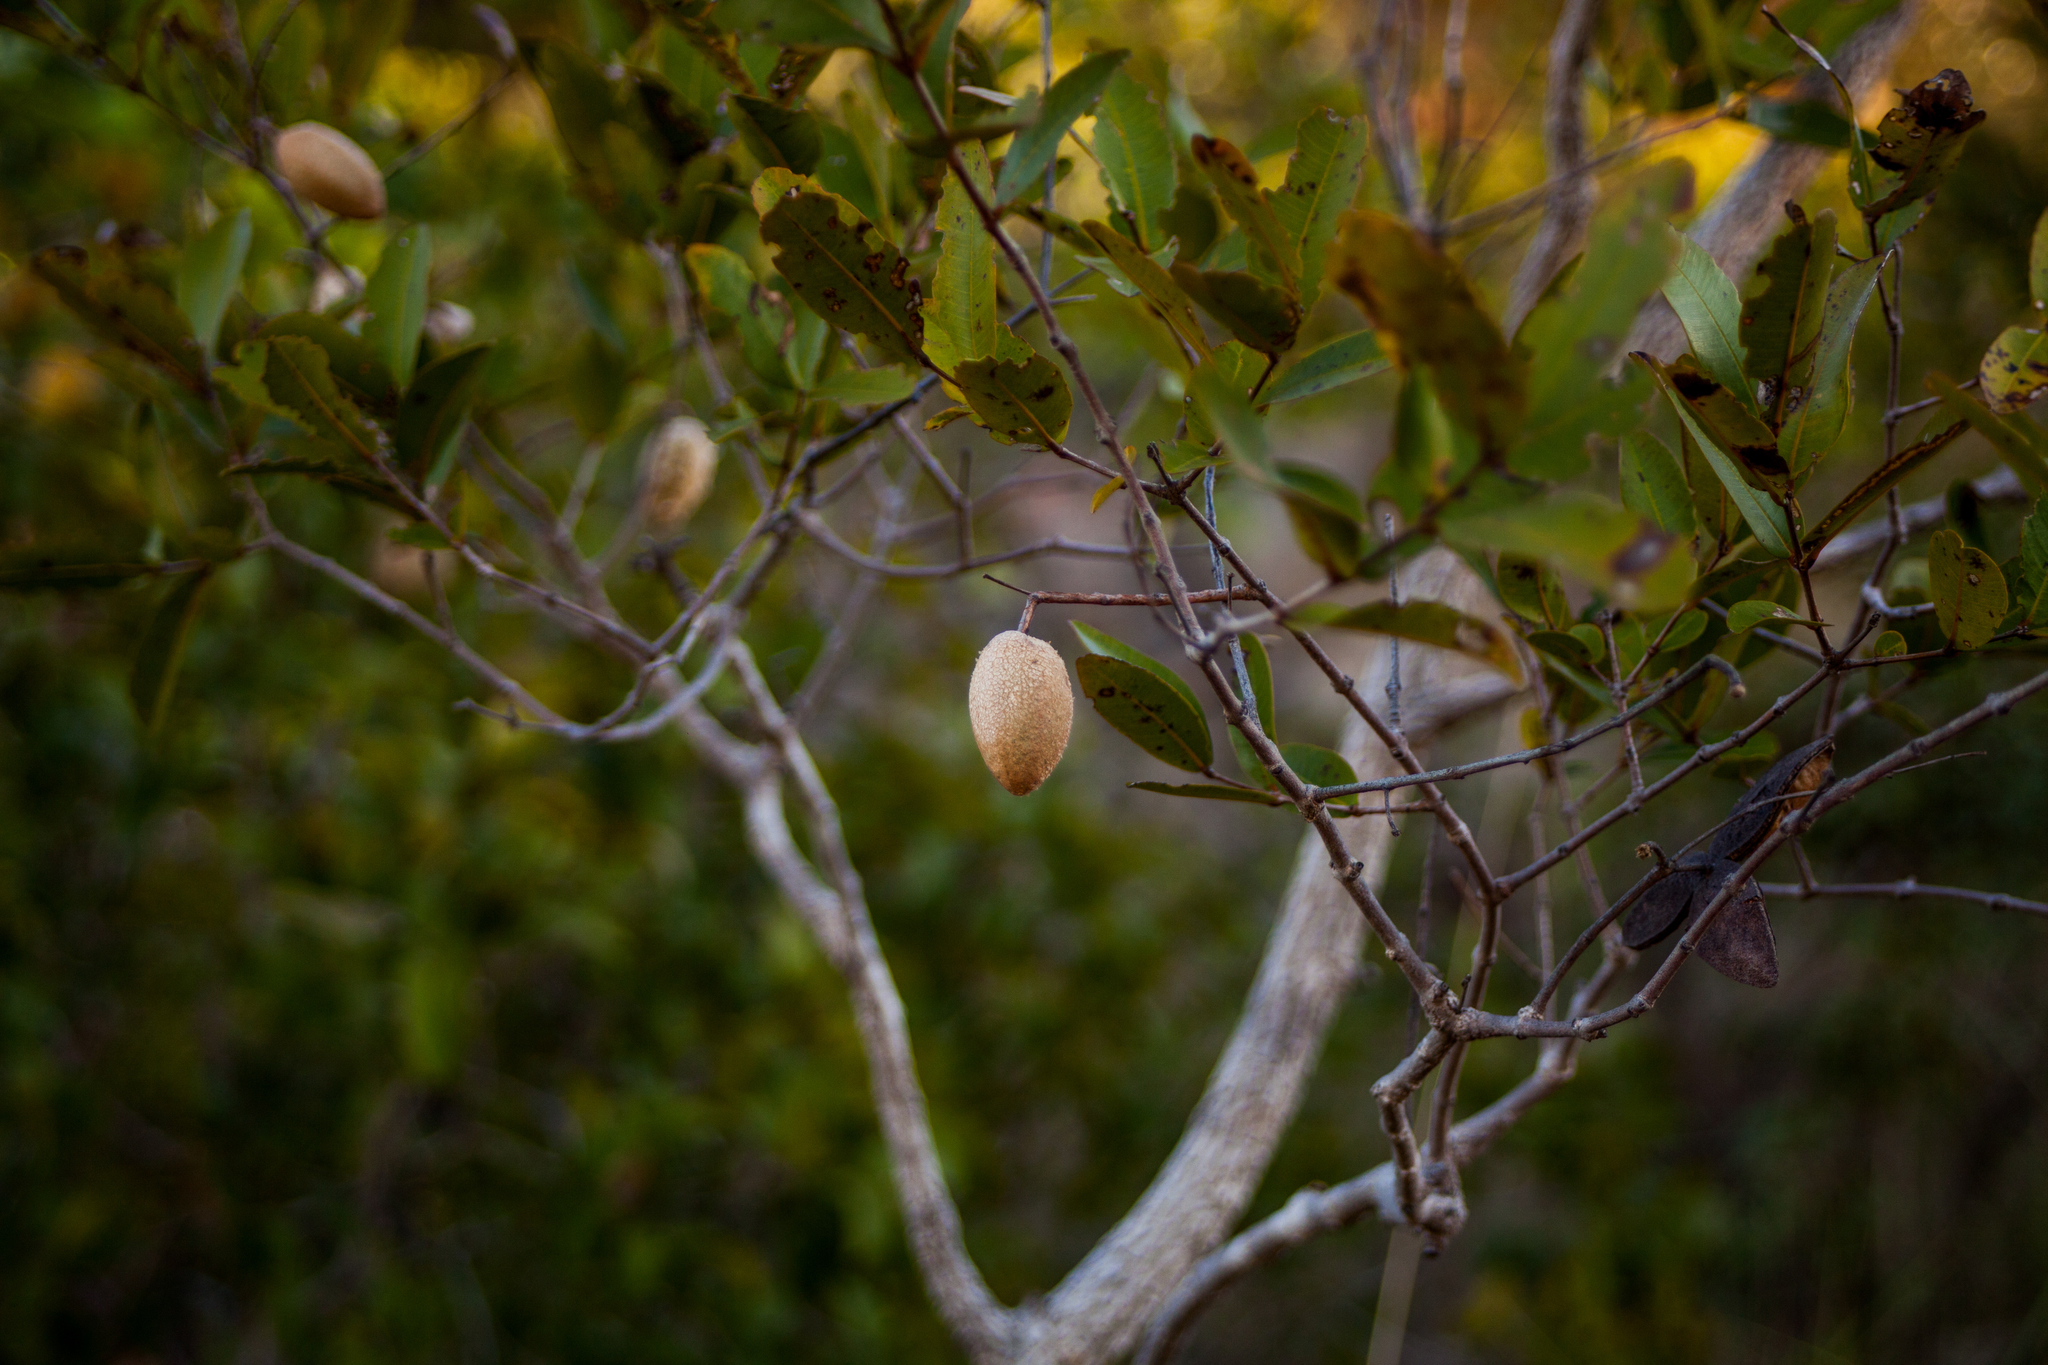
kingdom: Plantae
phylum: Tracheophyta
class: Magnoliopsida
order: Myrtales
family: Vochysiaceae
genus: Qualea
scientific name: Qualea parviflora
